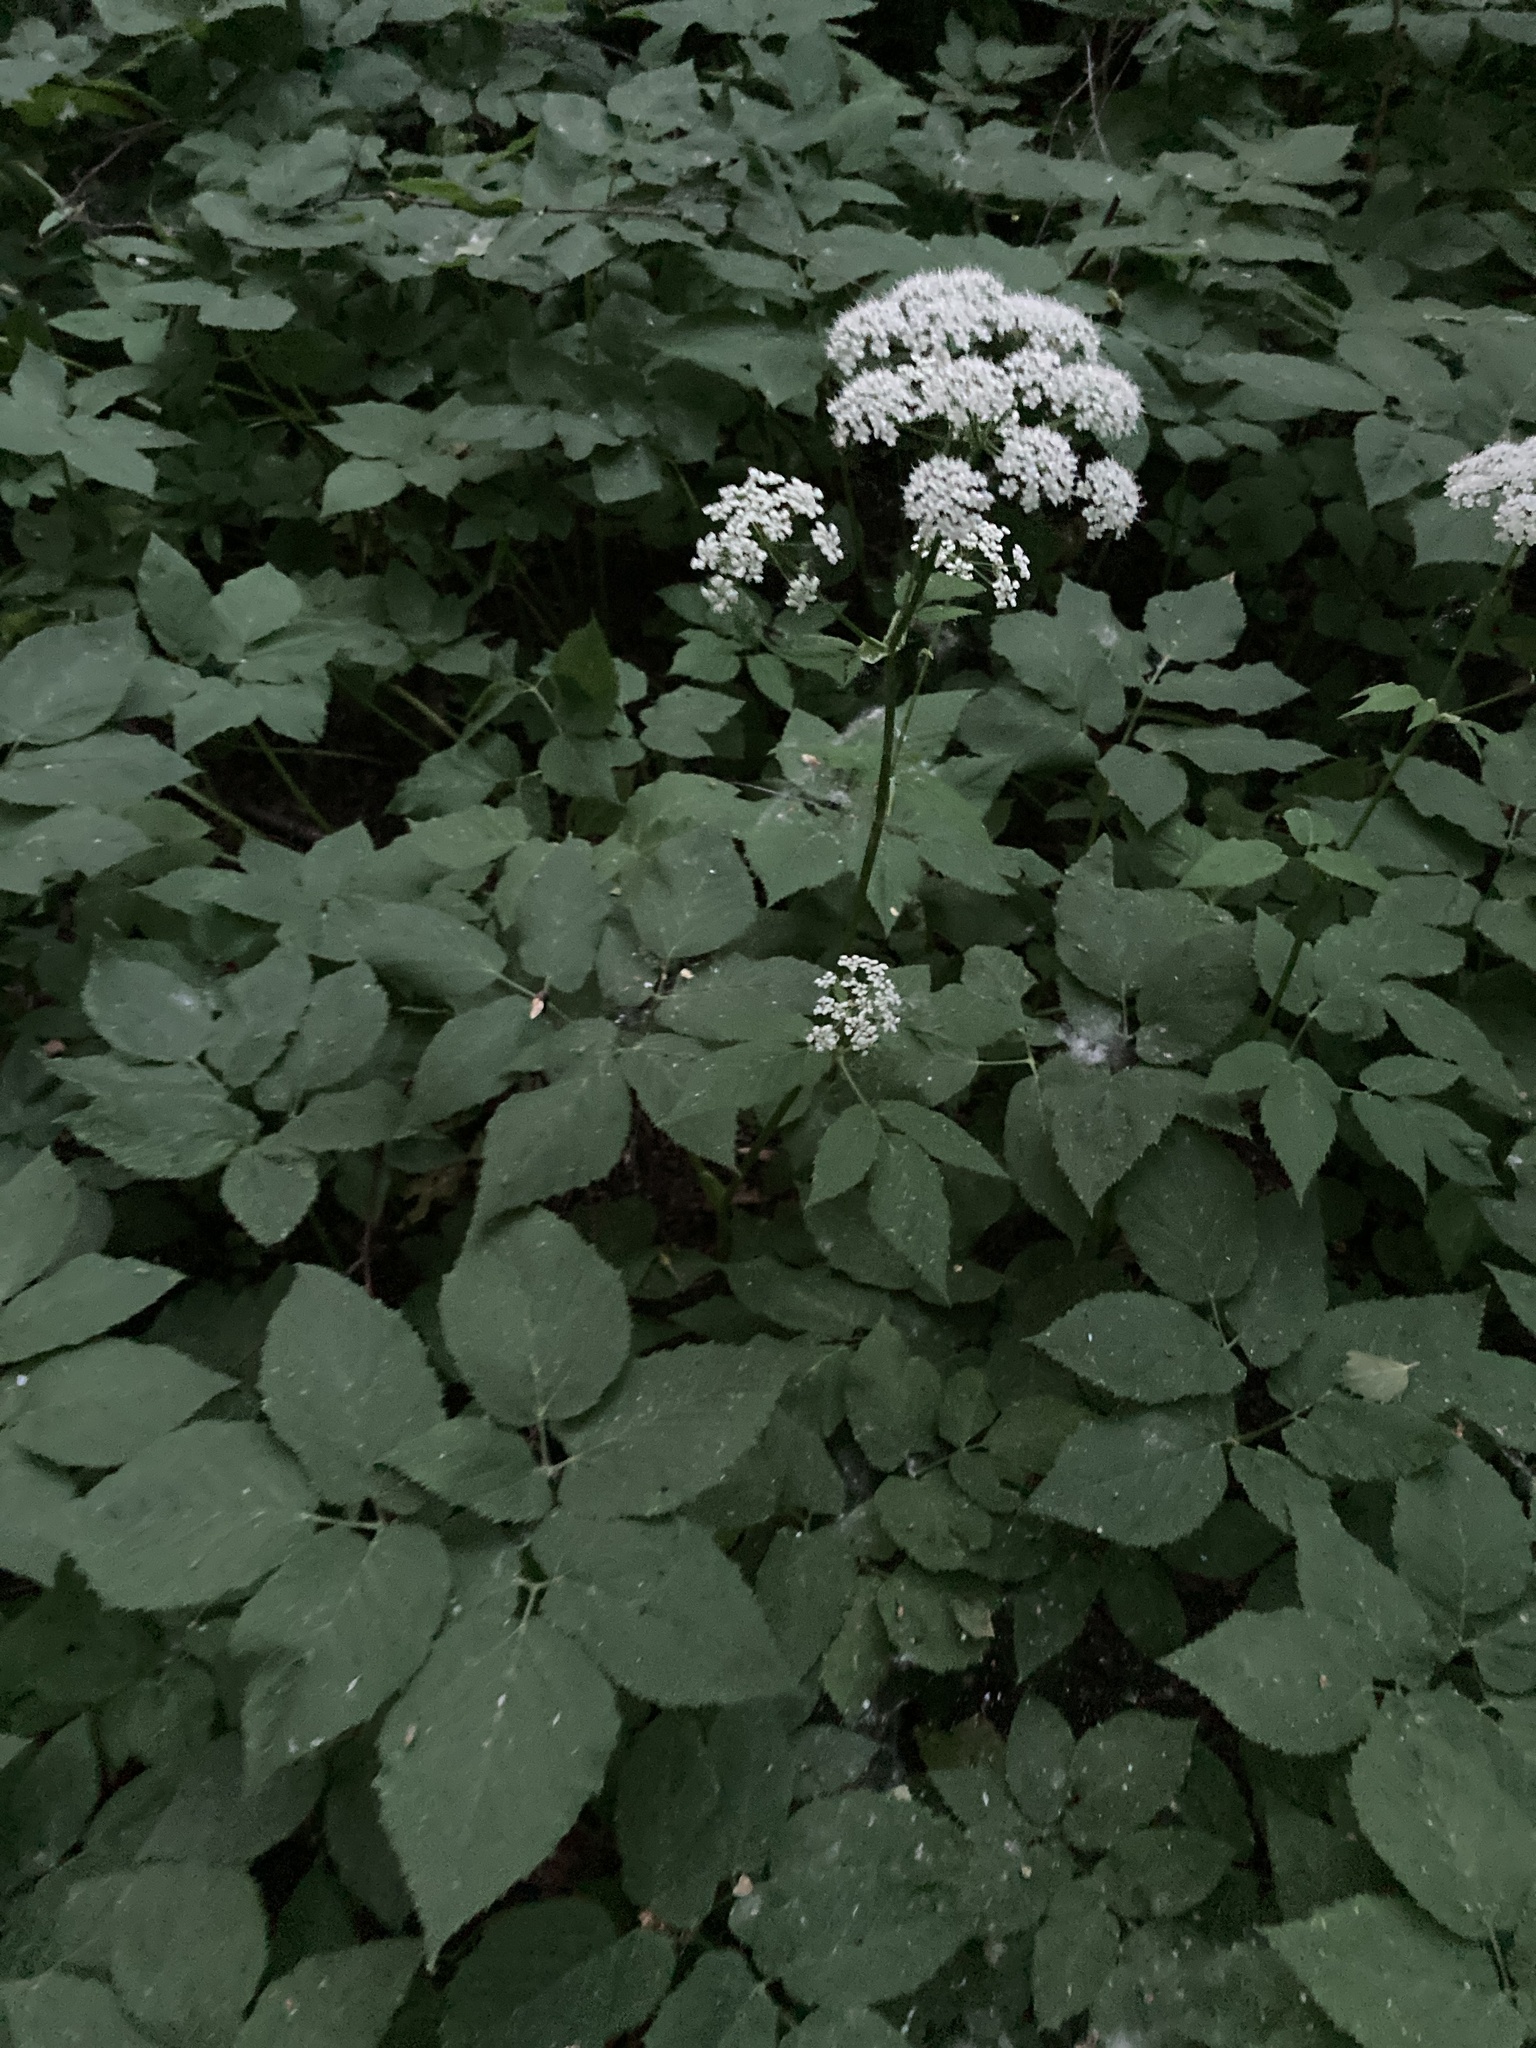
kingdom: Plantae
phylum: Tracheophyta
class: Magnoliopsida
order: Apiales
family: Apiaceae
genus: Aegopodium
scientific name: Aegopodium podagraria
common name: Ground-elder
